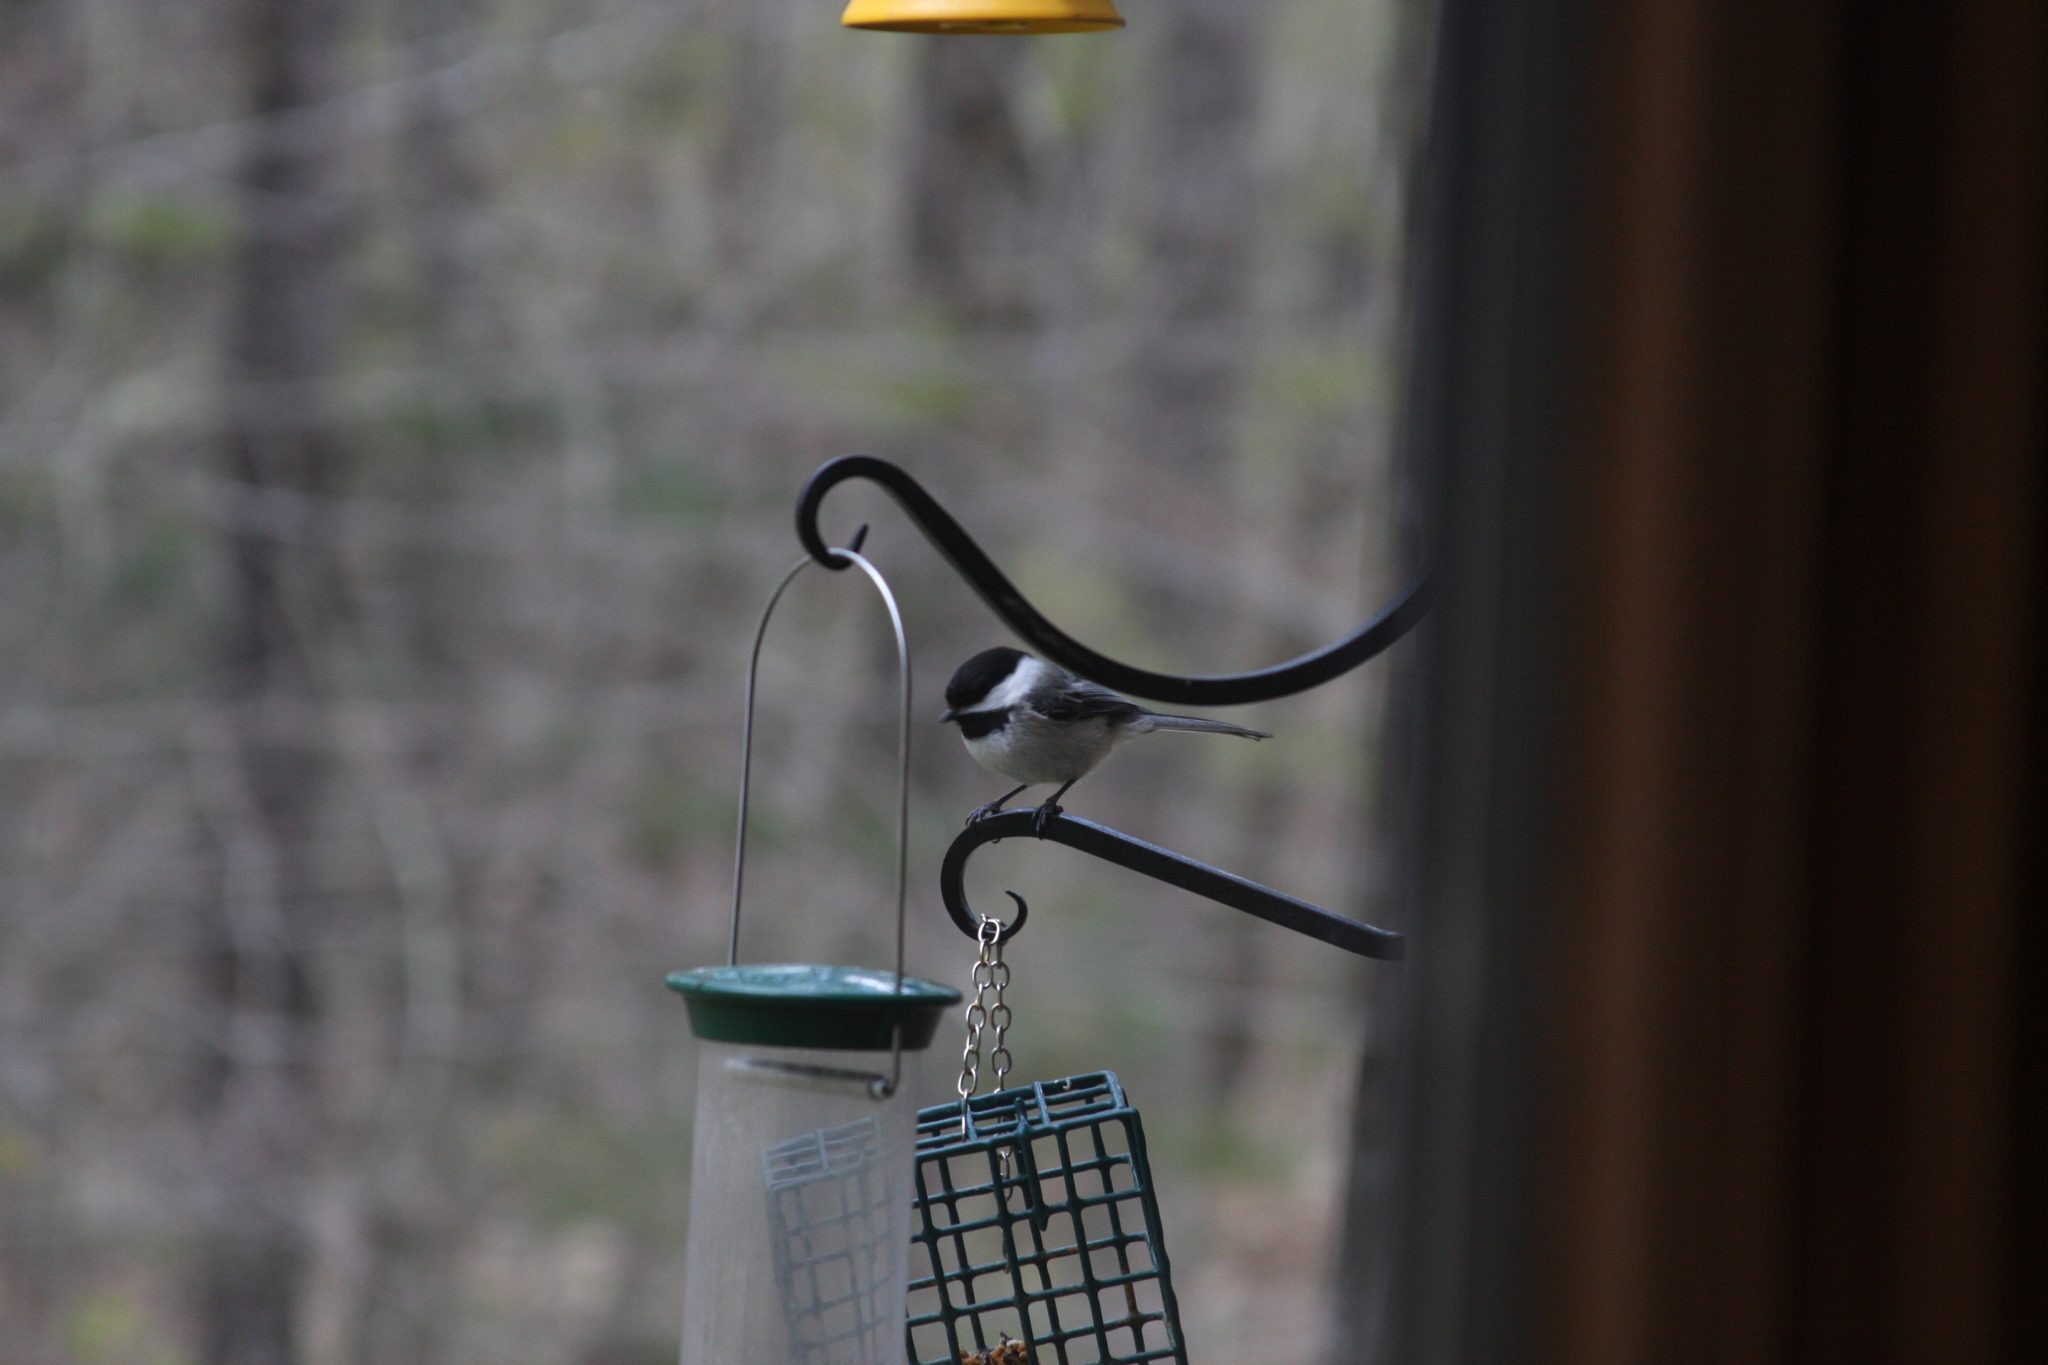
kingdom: Animalia
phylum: Chordata
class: Aves
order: Passeriformes
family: Paridae
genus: Poecile
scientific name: Poecile atricapillus
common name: Black-capped chickadee
